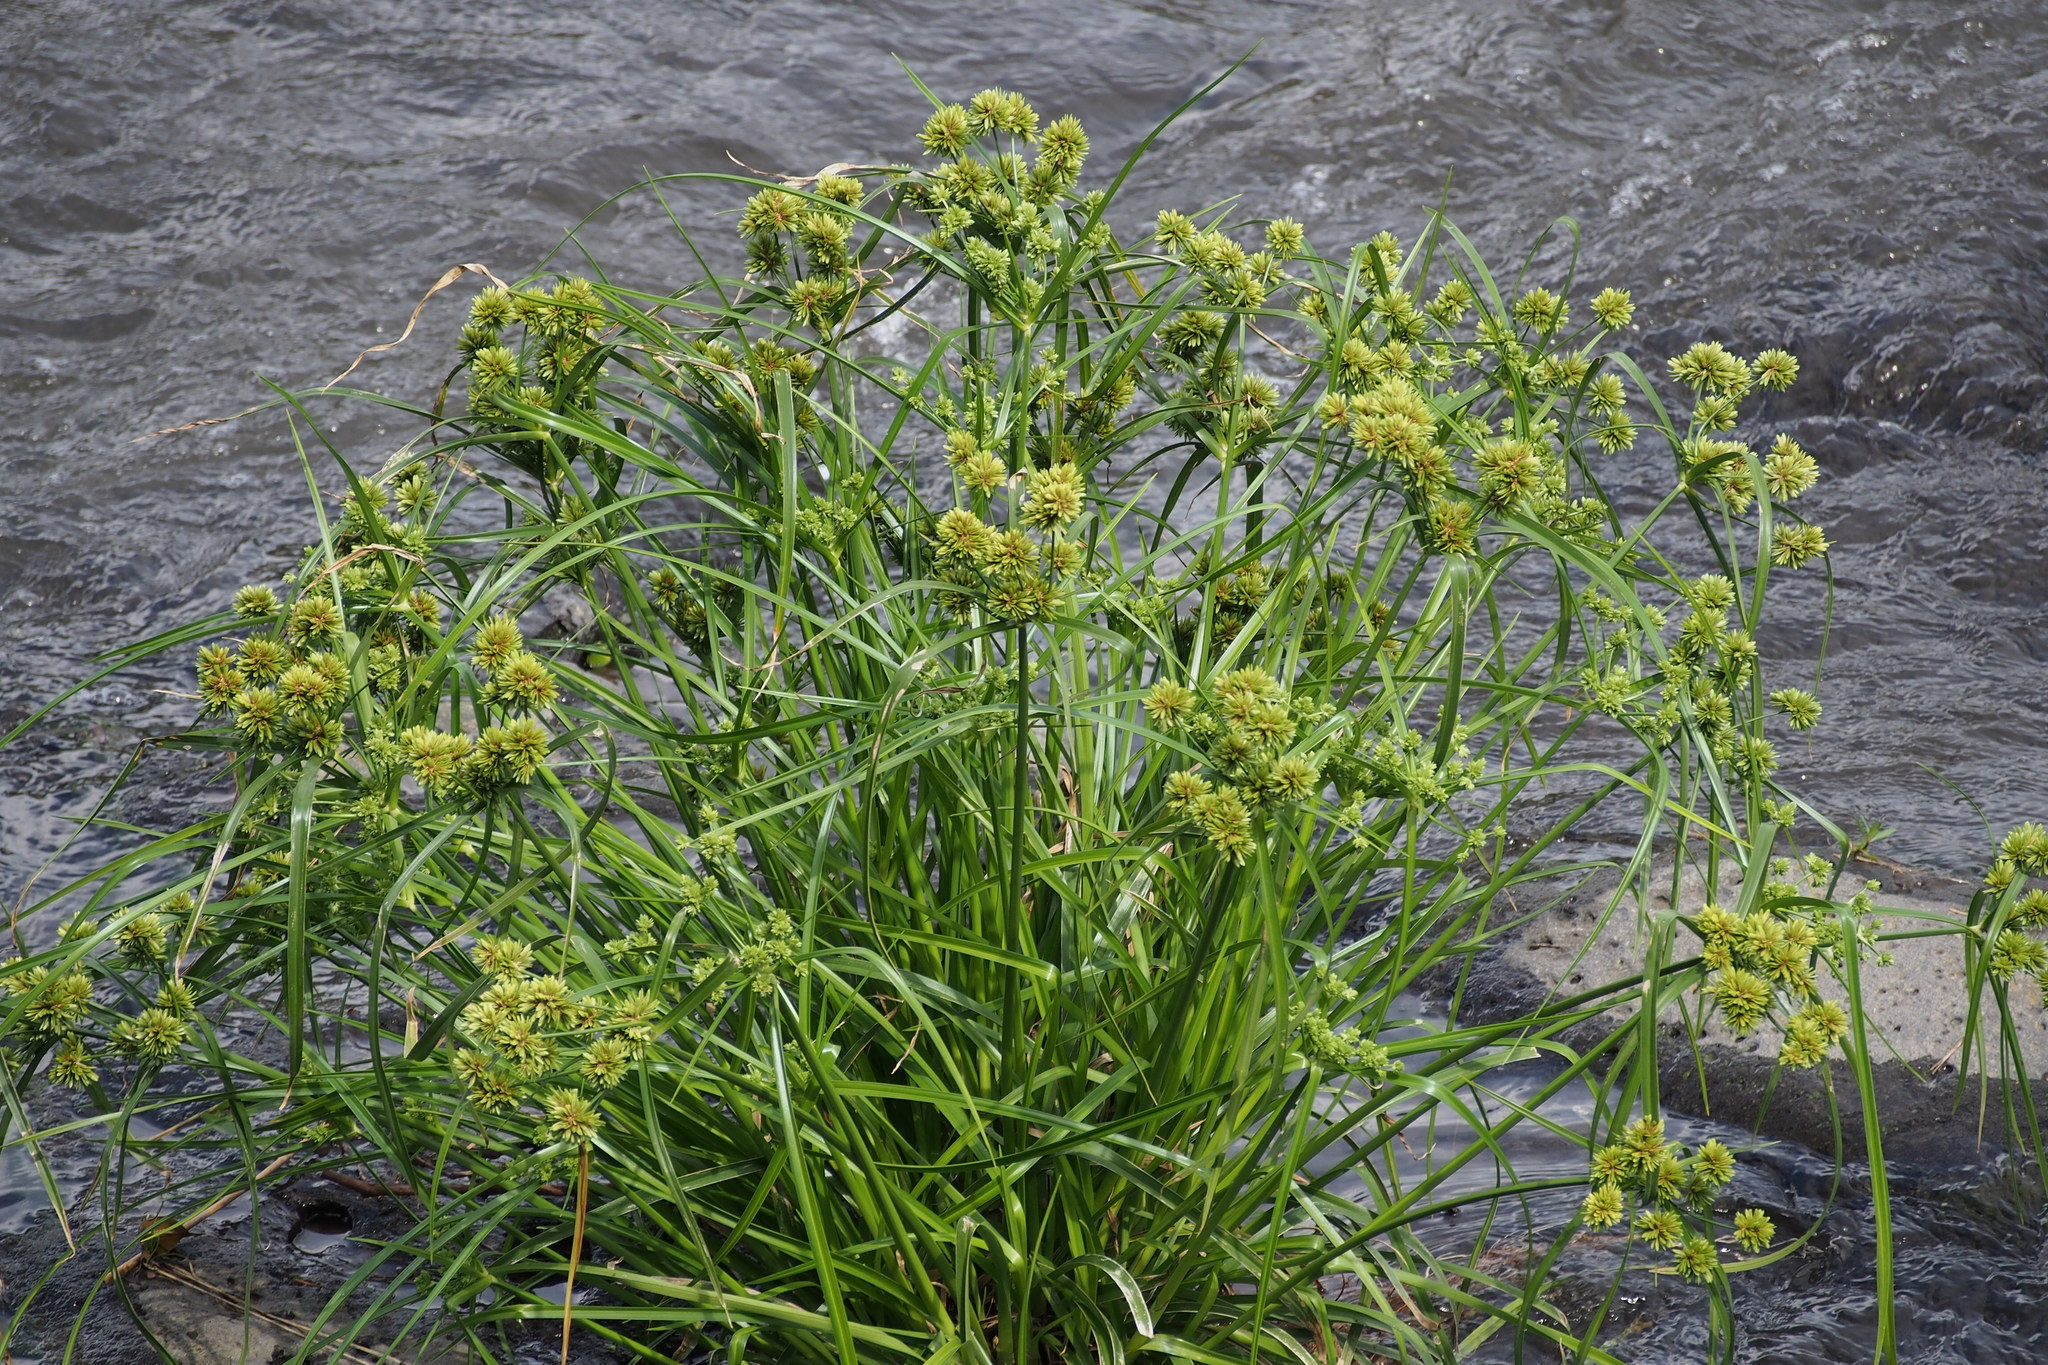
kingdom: Plantae
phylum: Tracheophyta
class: Liliopsida
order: Poales
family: Cyperaceae
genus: Cyperus
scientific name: Cyperus eragrostis
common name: Tall flatsedge
